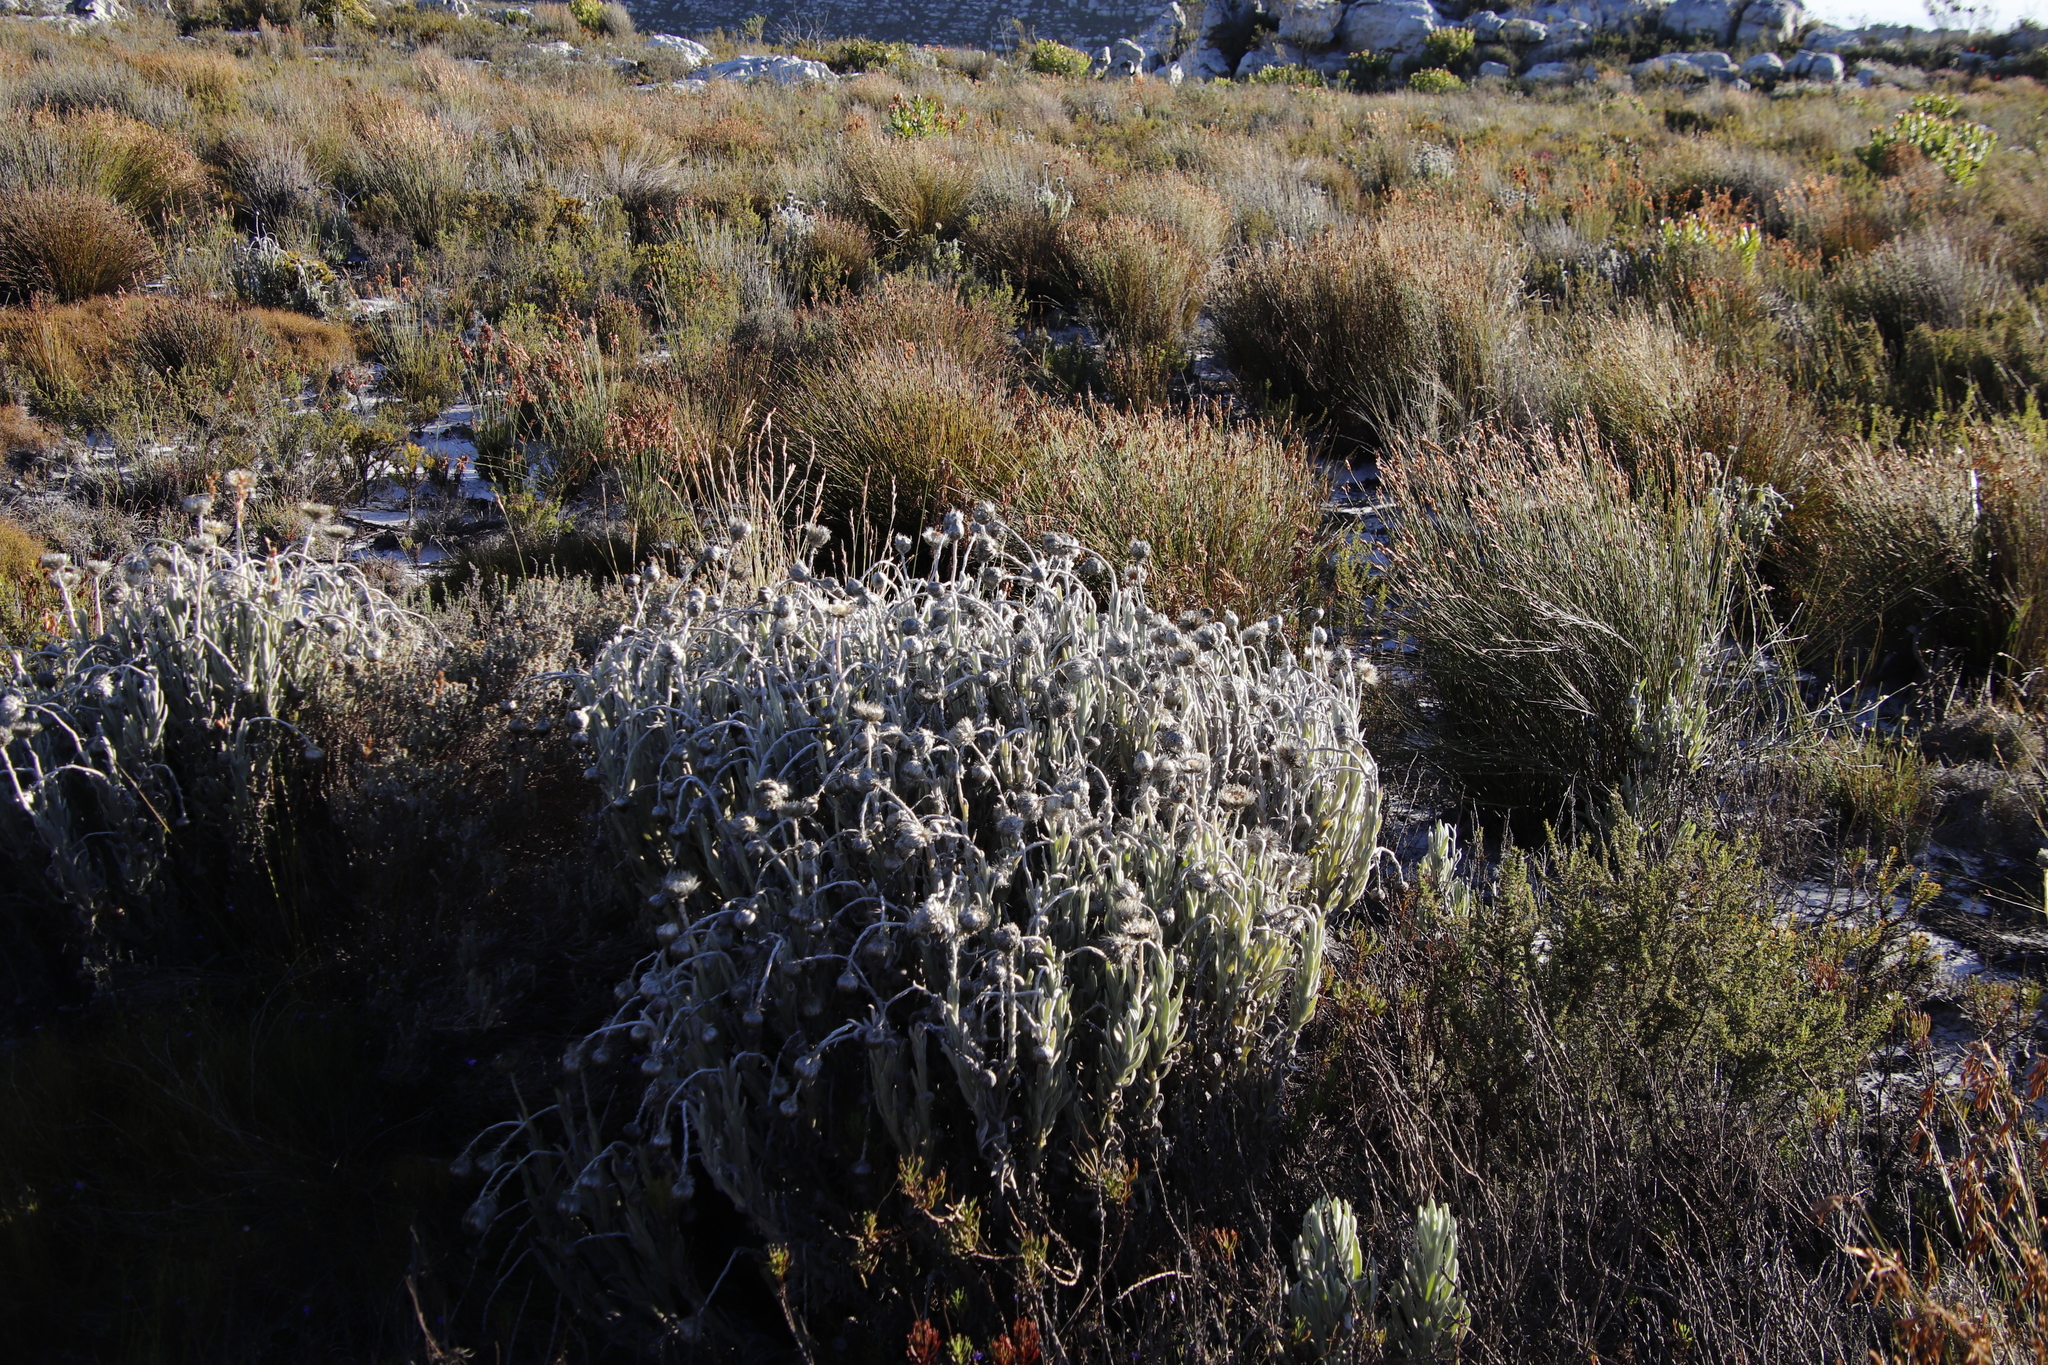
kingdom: Plantae
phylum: Tracheophyta
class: Magnoliopsida
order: Asterales
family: Asteraceae
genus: Syncarpha
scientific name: Syncarpha vestita
